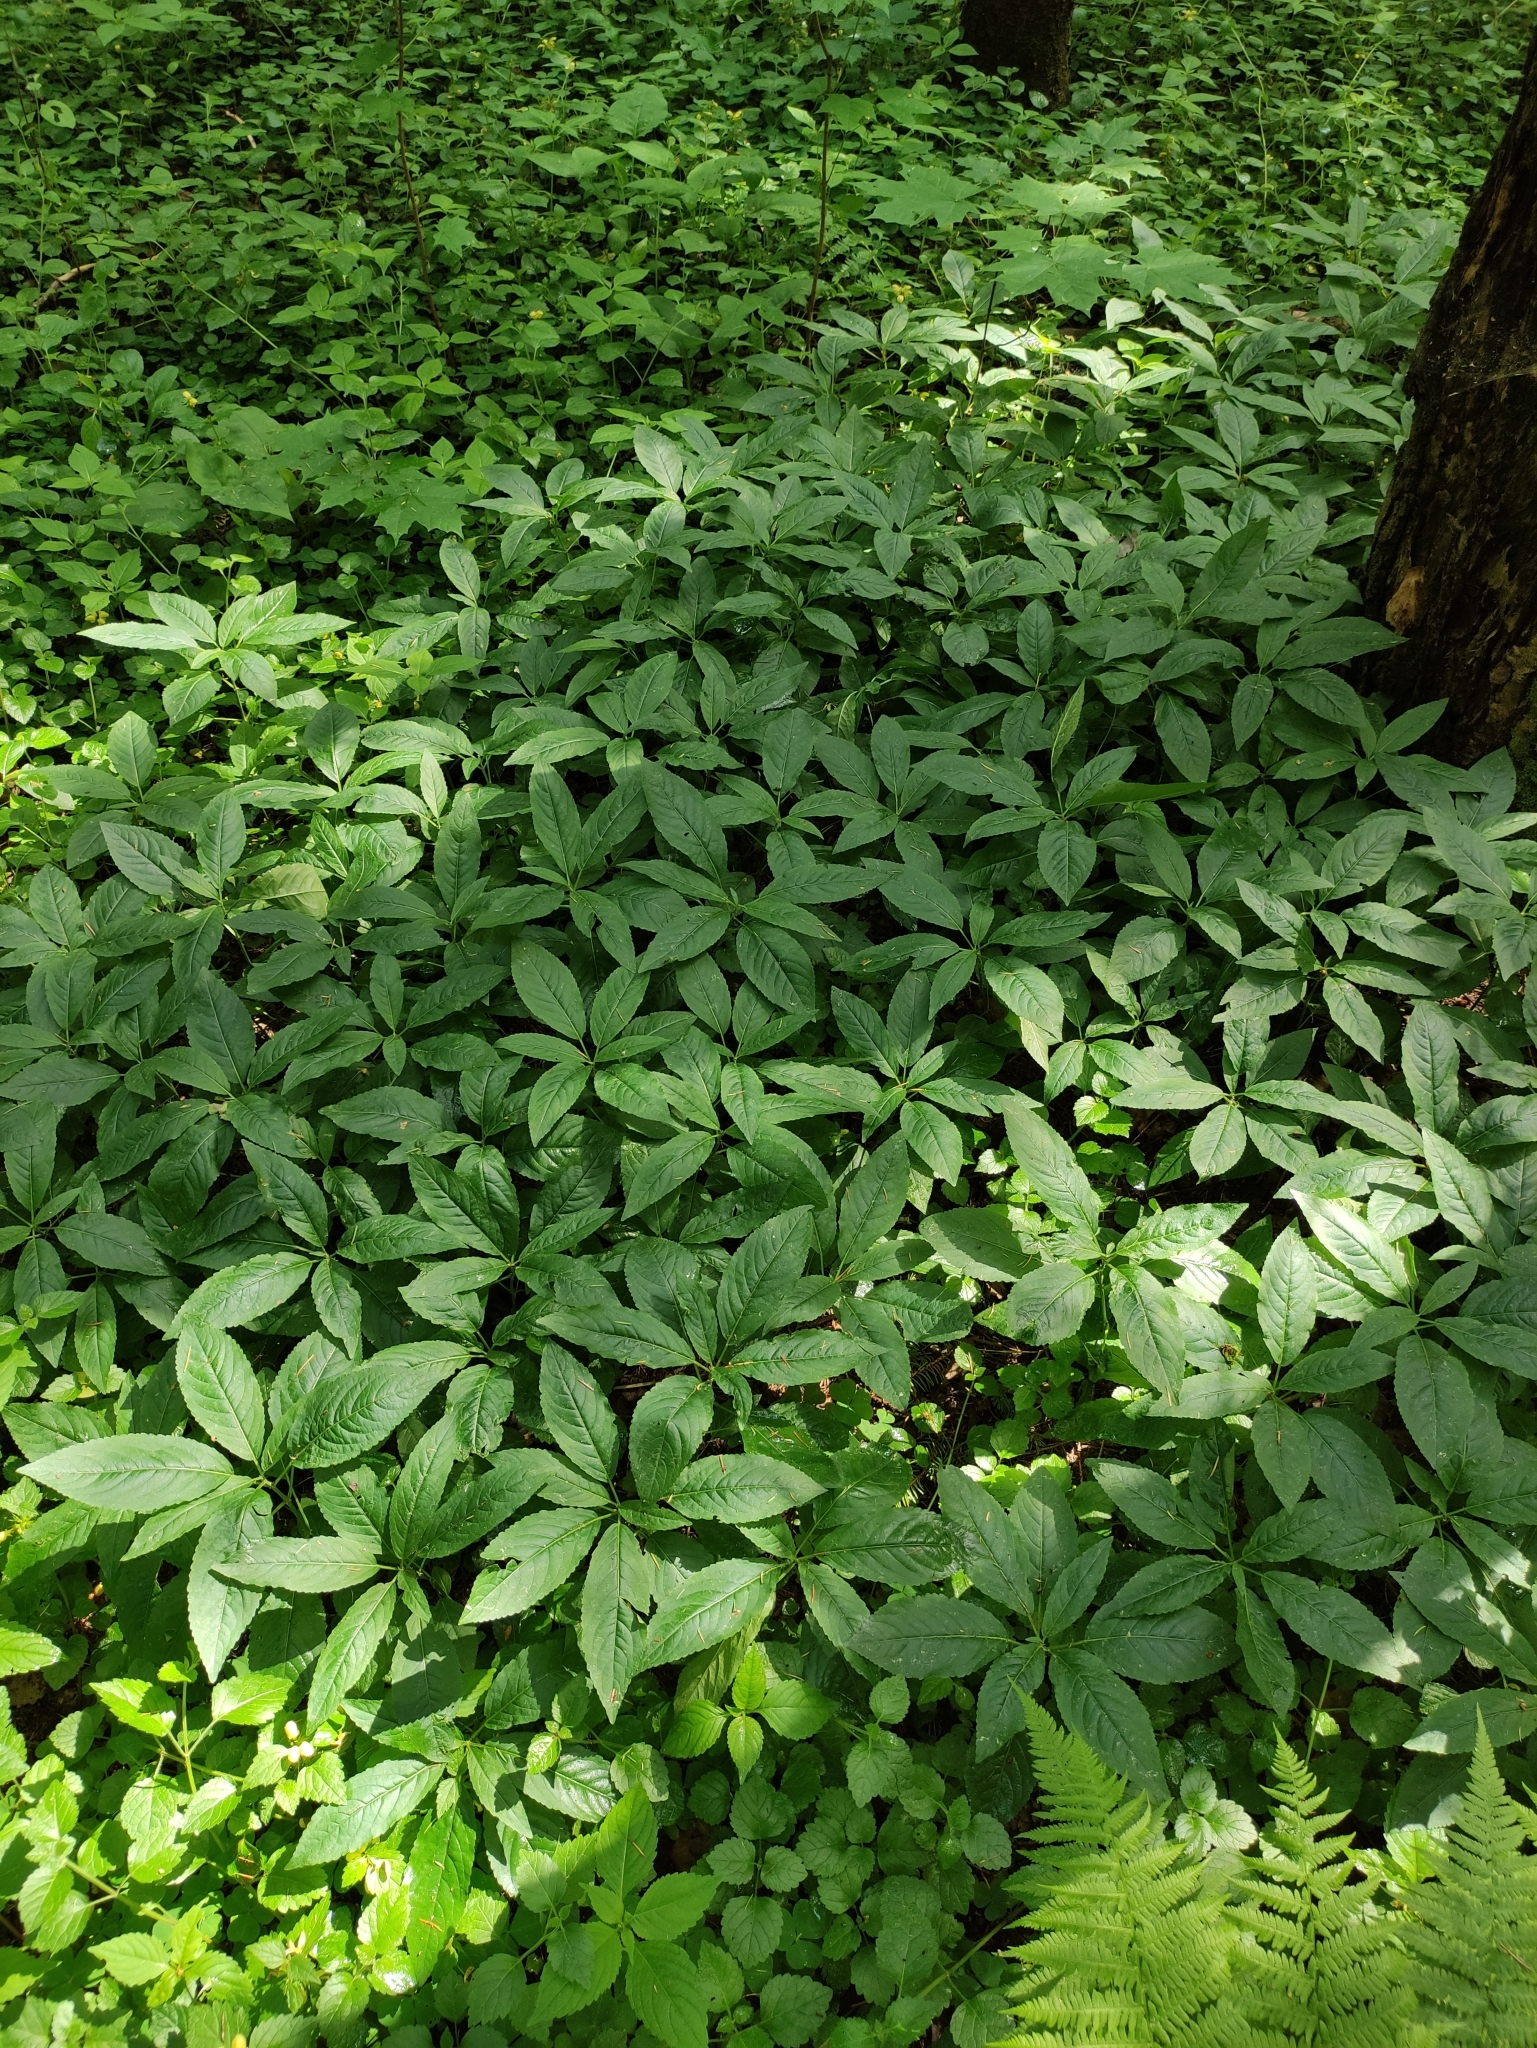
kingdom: Plantae
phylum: Tracheophyta
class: Magnoliopsida
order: Malpighiales
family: Euphorbiaceae
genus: Mercurialis
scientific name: Mercurialis perennis
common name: Dog mercury
